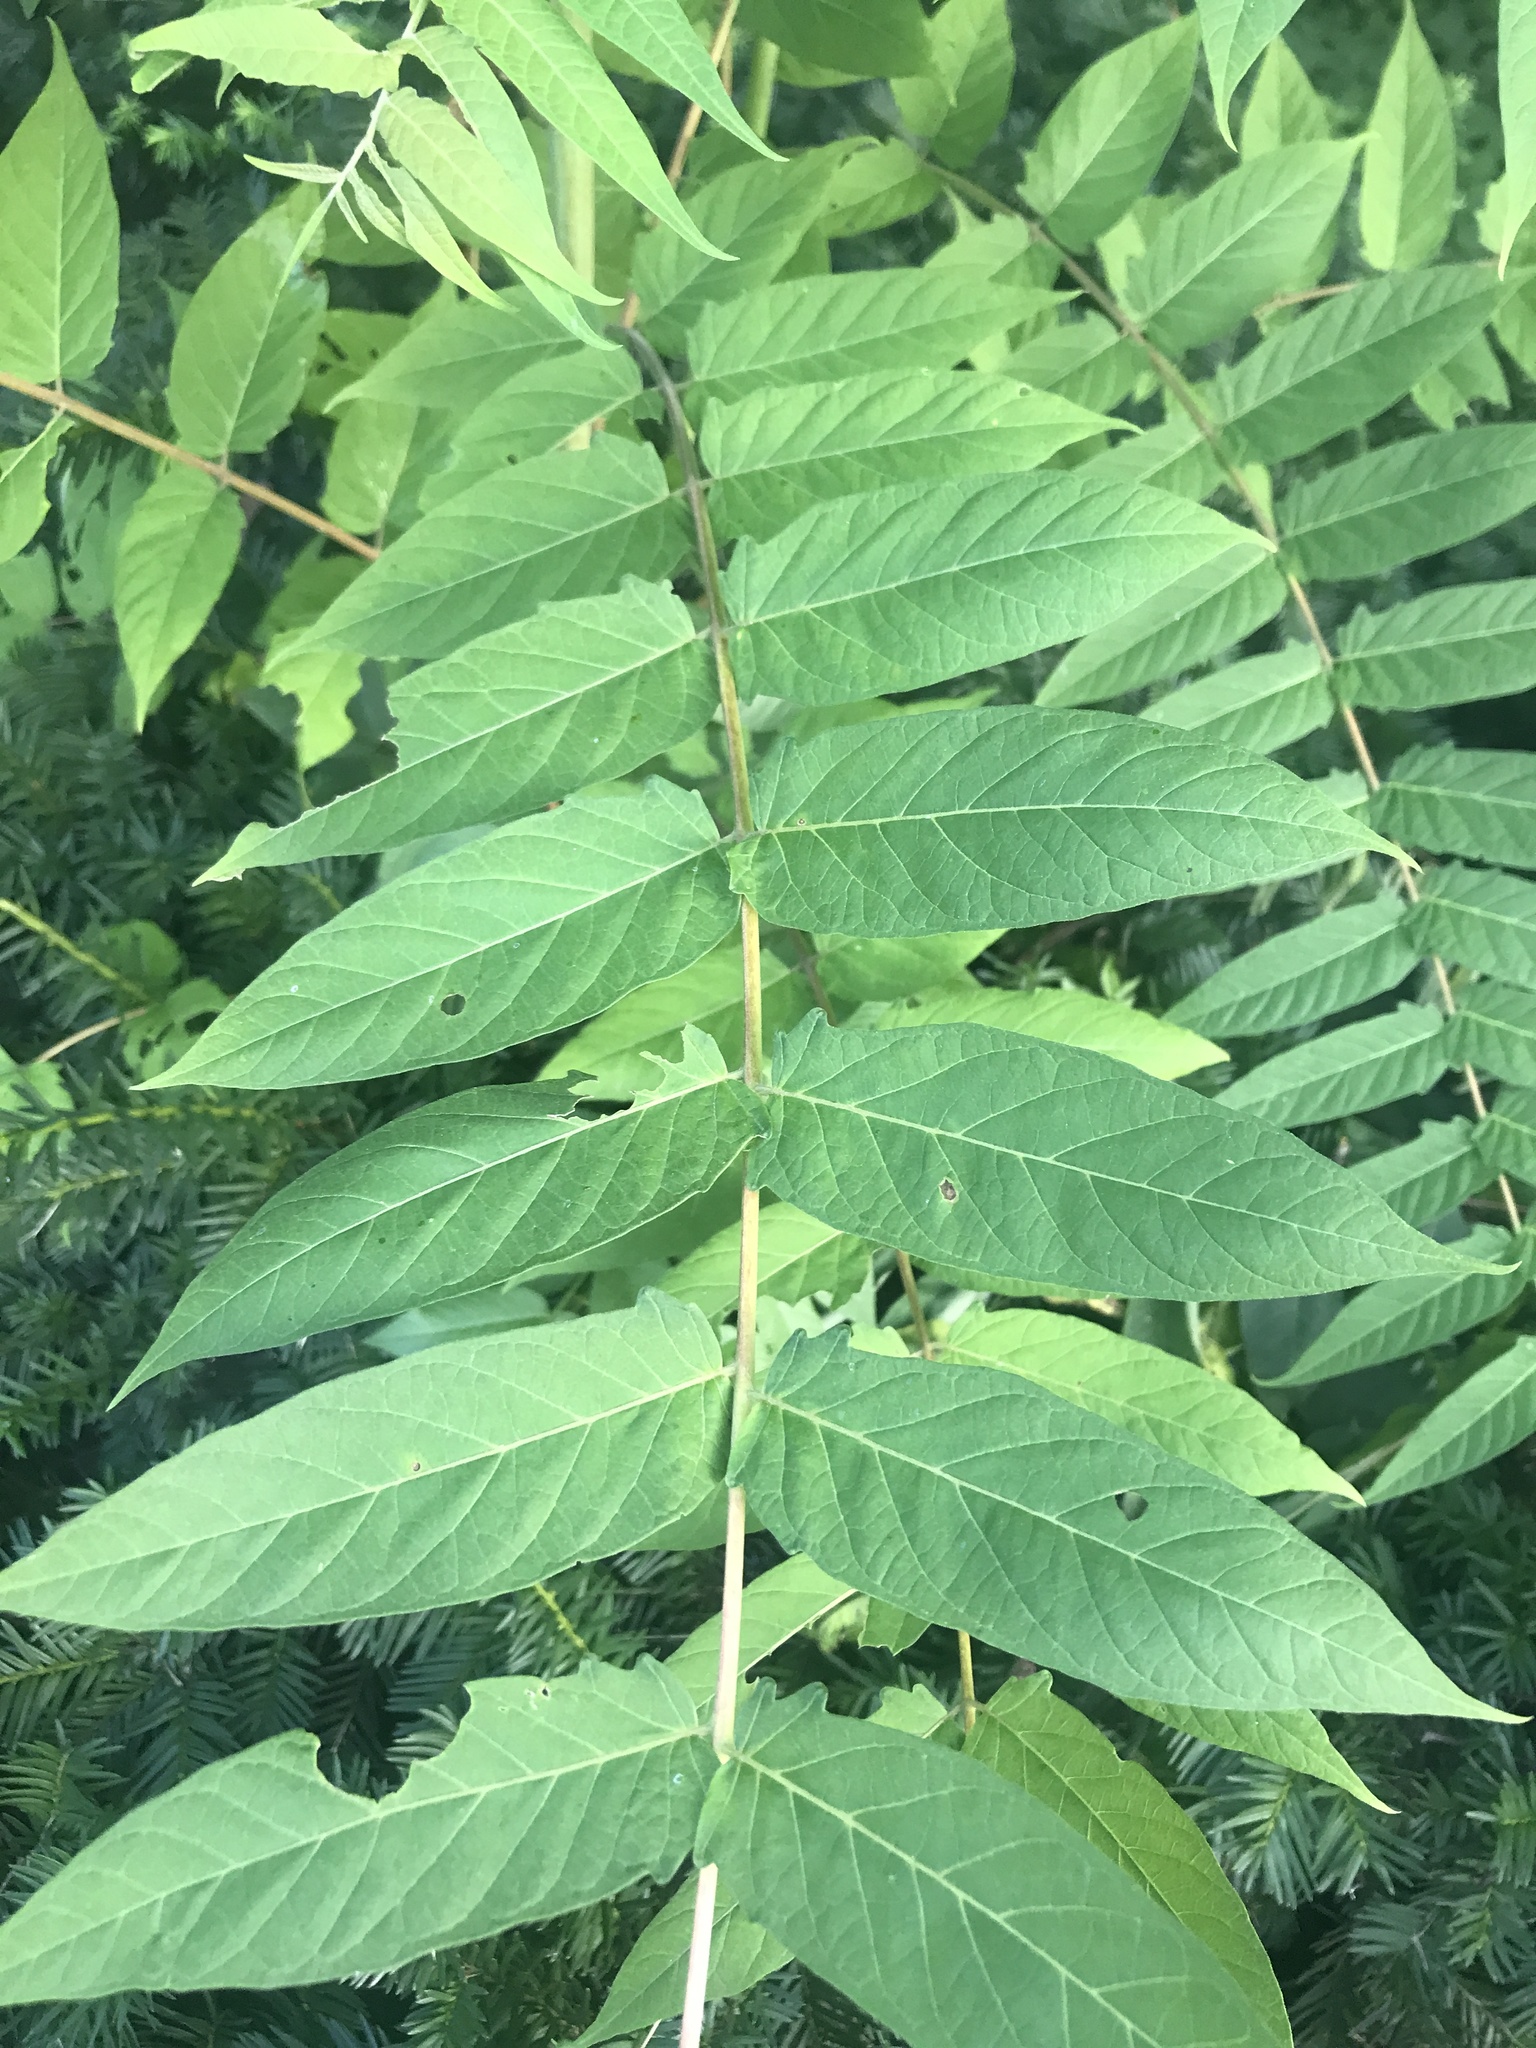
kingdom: Plantae
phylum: Tracheophyta
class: Magnoliopsida
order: Sapindales
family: Simaroubaceae
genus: Ailanthus
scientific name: Ailanthus altissima
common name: Tree-of-heaven
